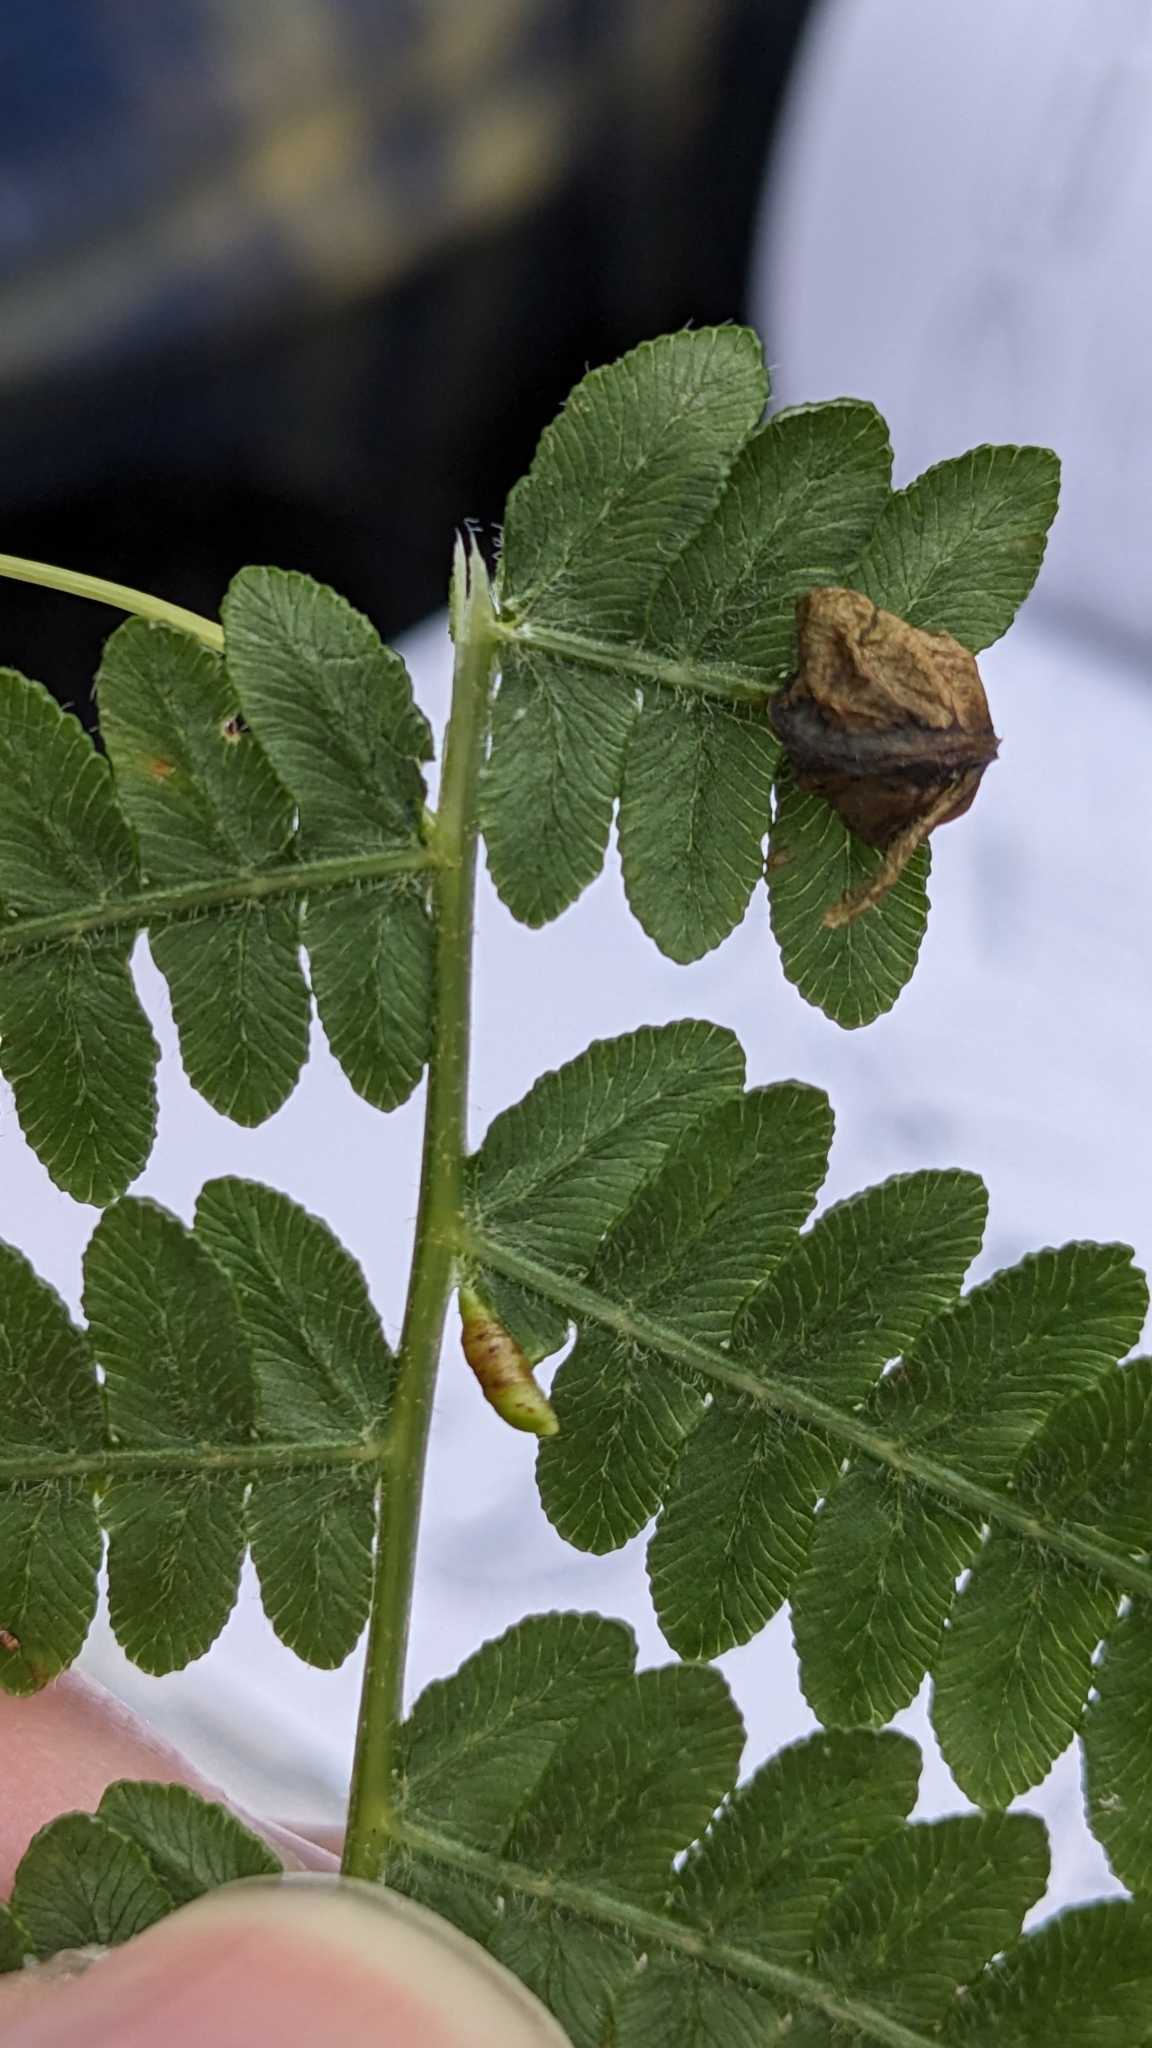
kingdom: Animalia
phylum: Arthropoda
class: Insecta
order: Diptera
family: Anthomyiidae
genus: Chirosia
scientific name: Chirosia grossicauda
